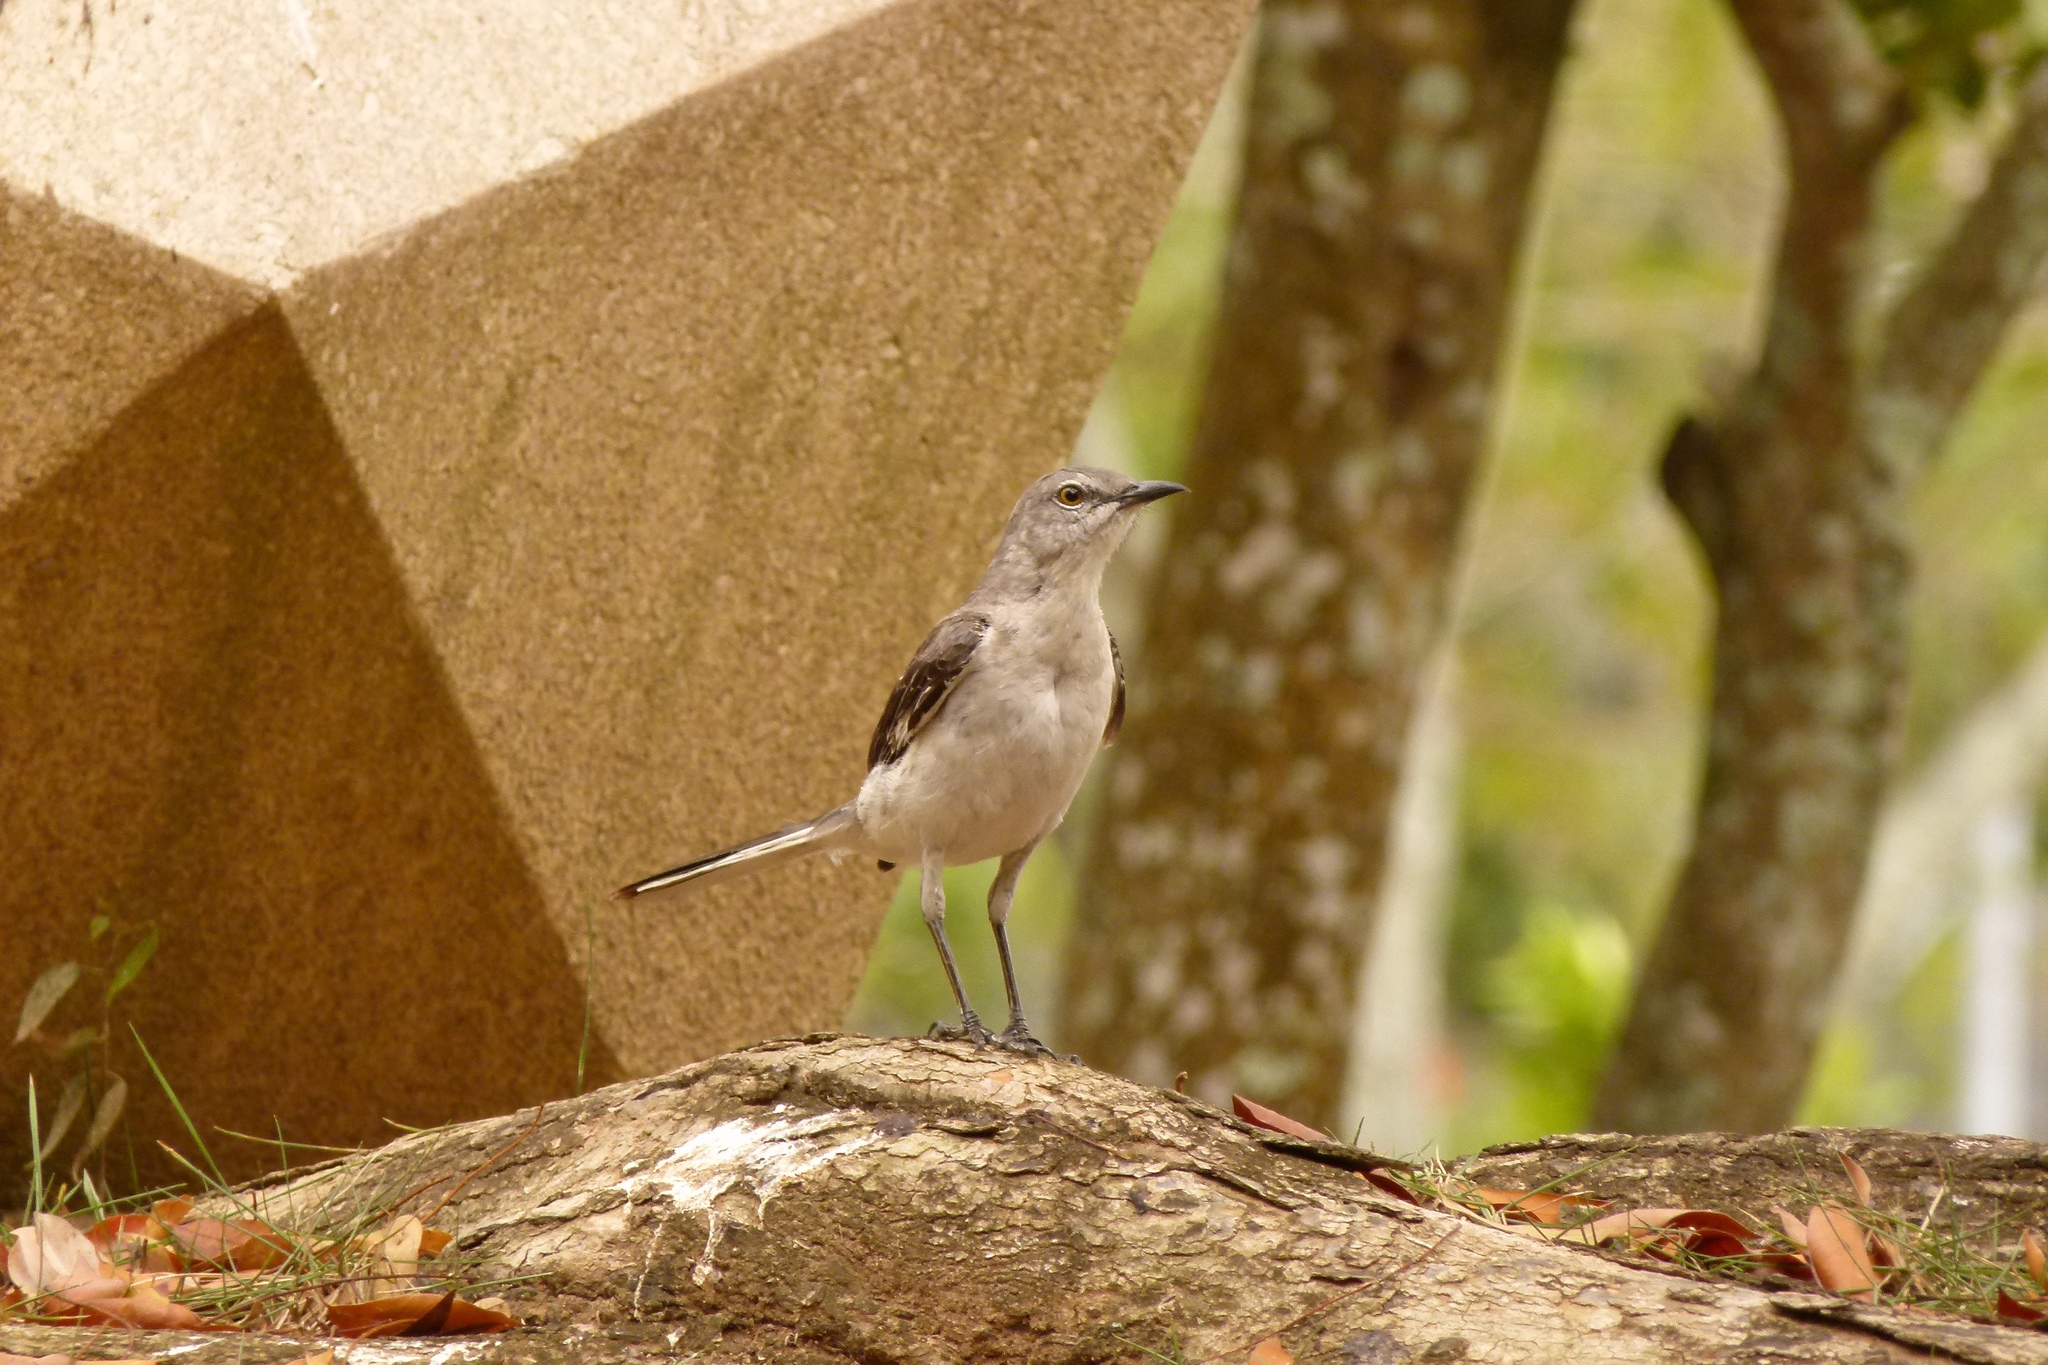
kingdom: Animalia
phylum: Chordata
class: Aves
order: Passeriformes
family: Mimidae
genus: Mimus
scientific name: Mimus polyglottos
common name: Northern mockingbird
